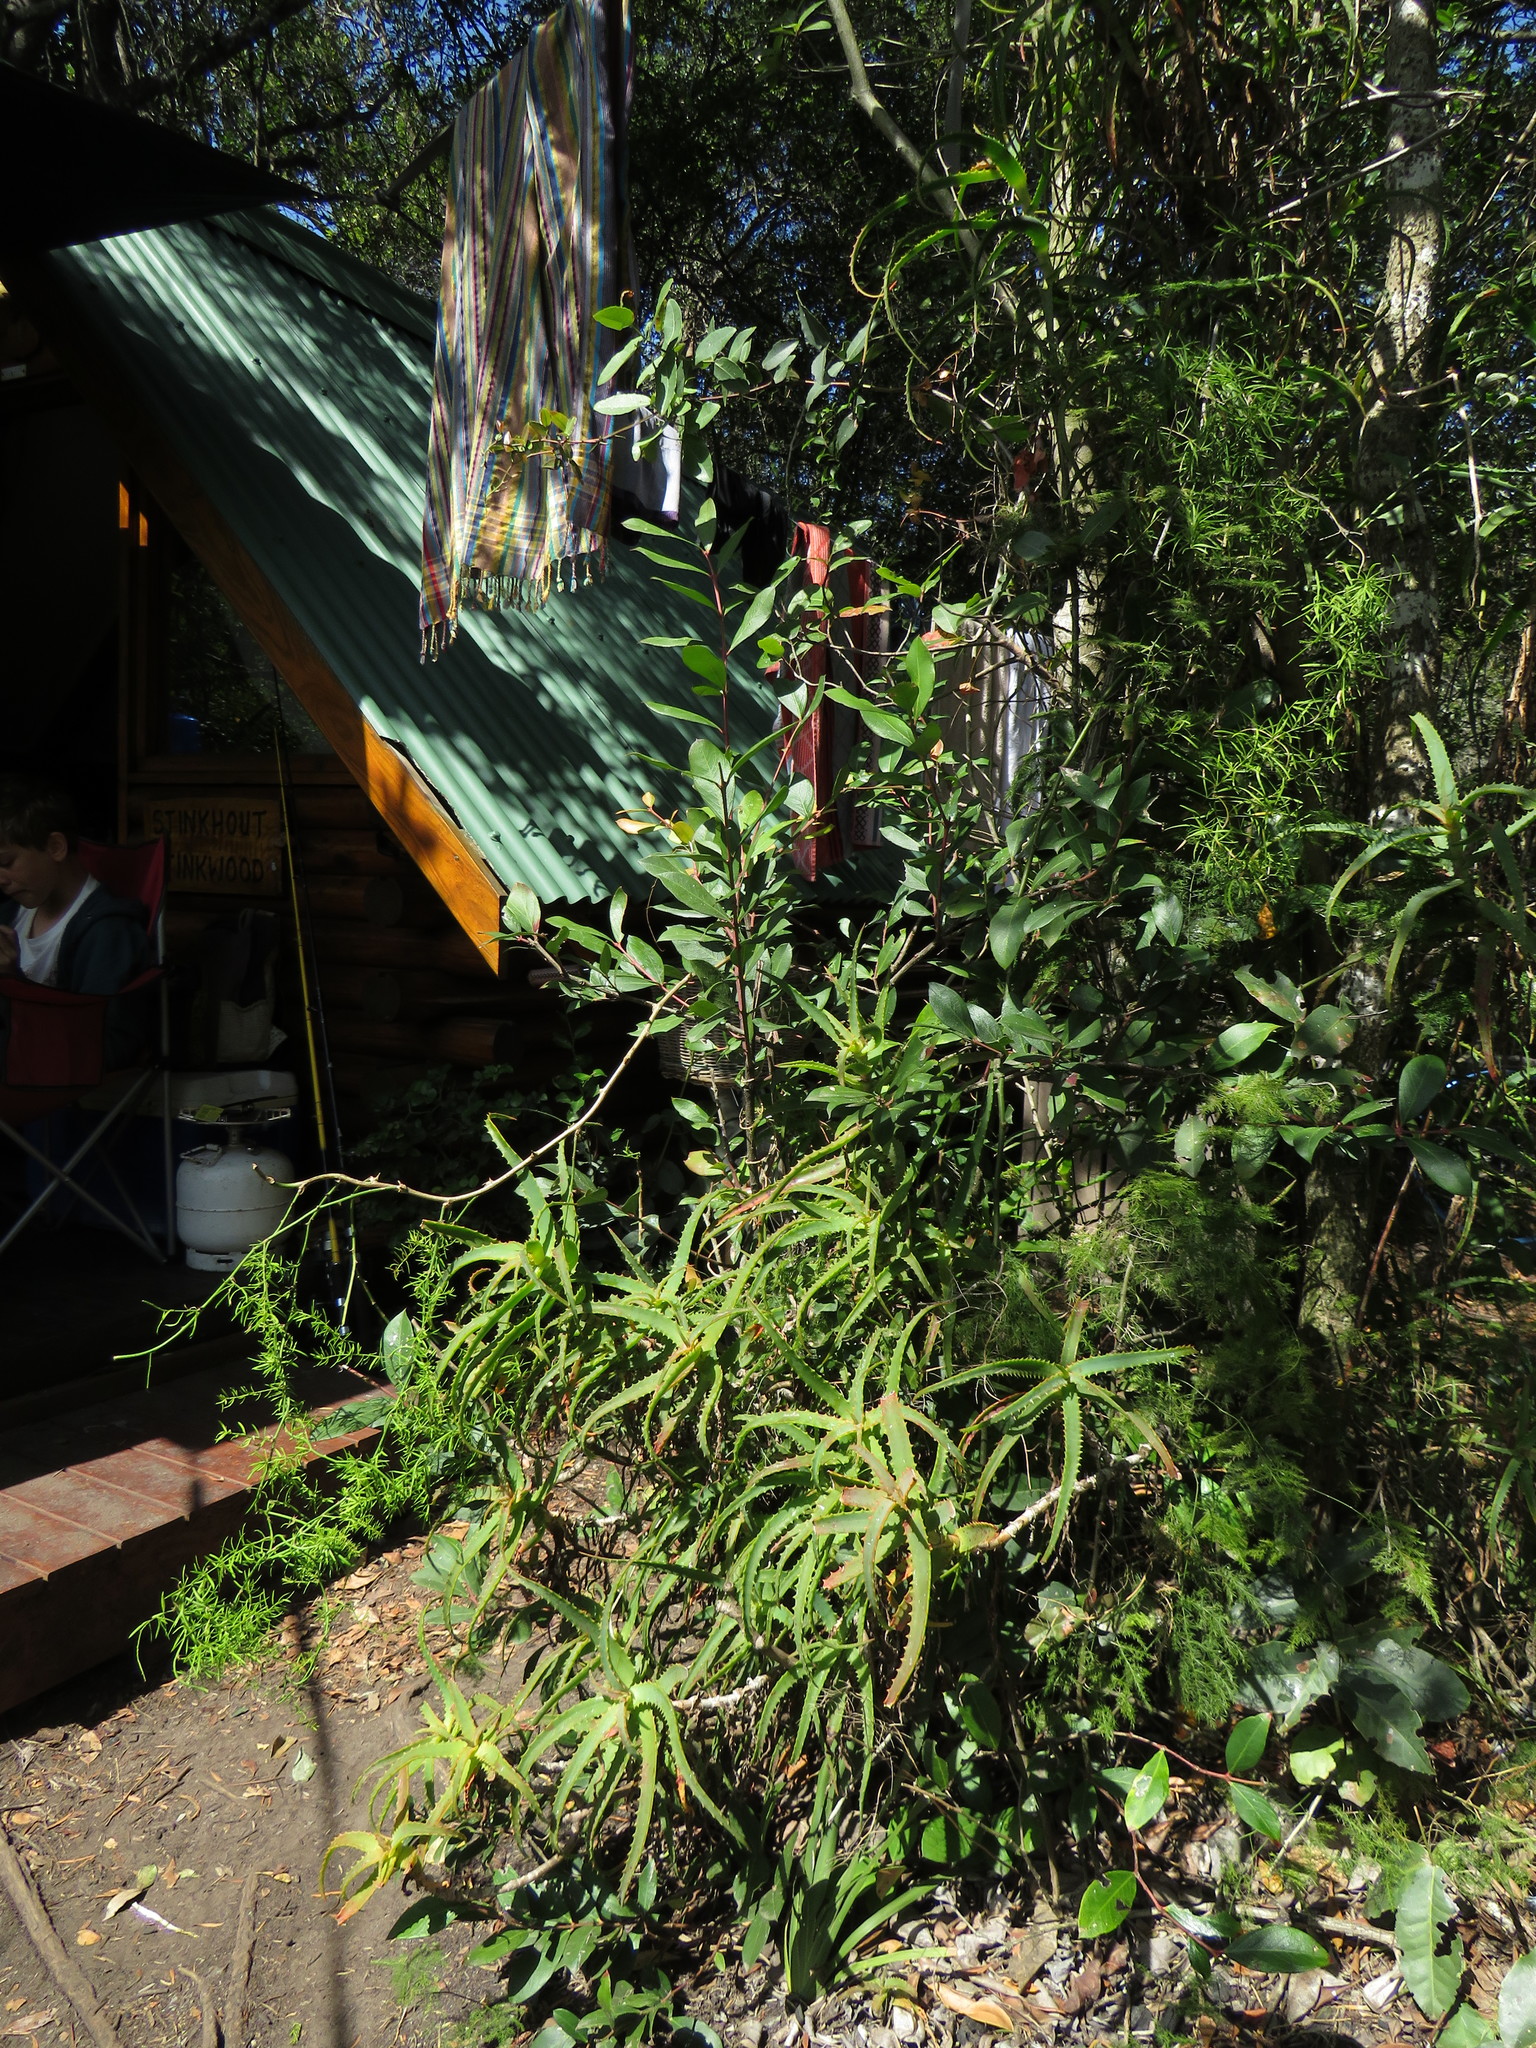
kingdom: Plantae
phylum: Tracheophyta
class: Magnoliopsida
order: Gentianales
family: Apocynaceae
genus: Acokanthera
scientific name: Acokanthera oppositifolia
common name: Bushman's-poison
